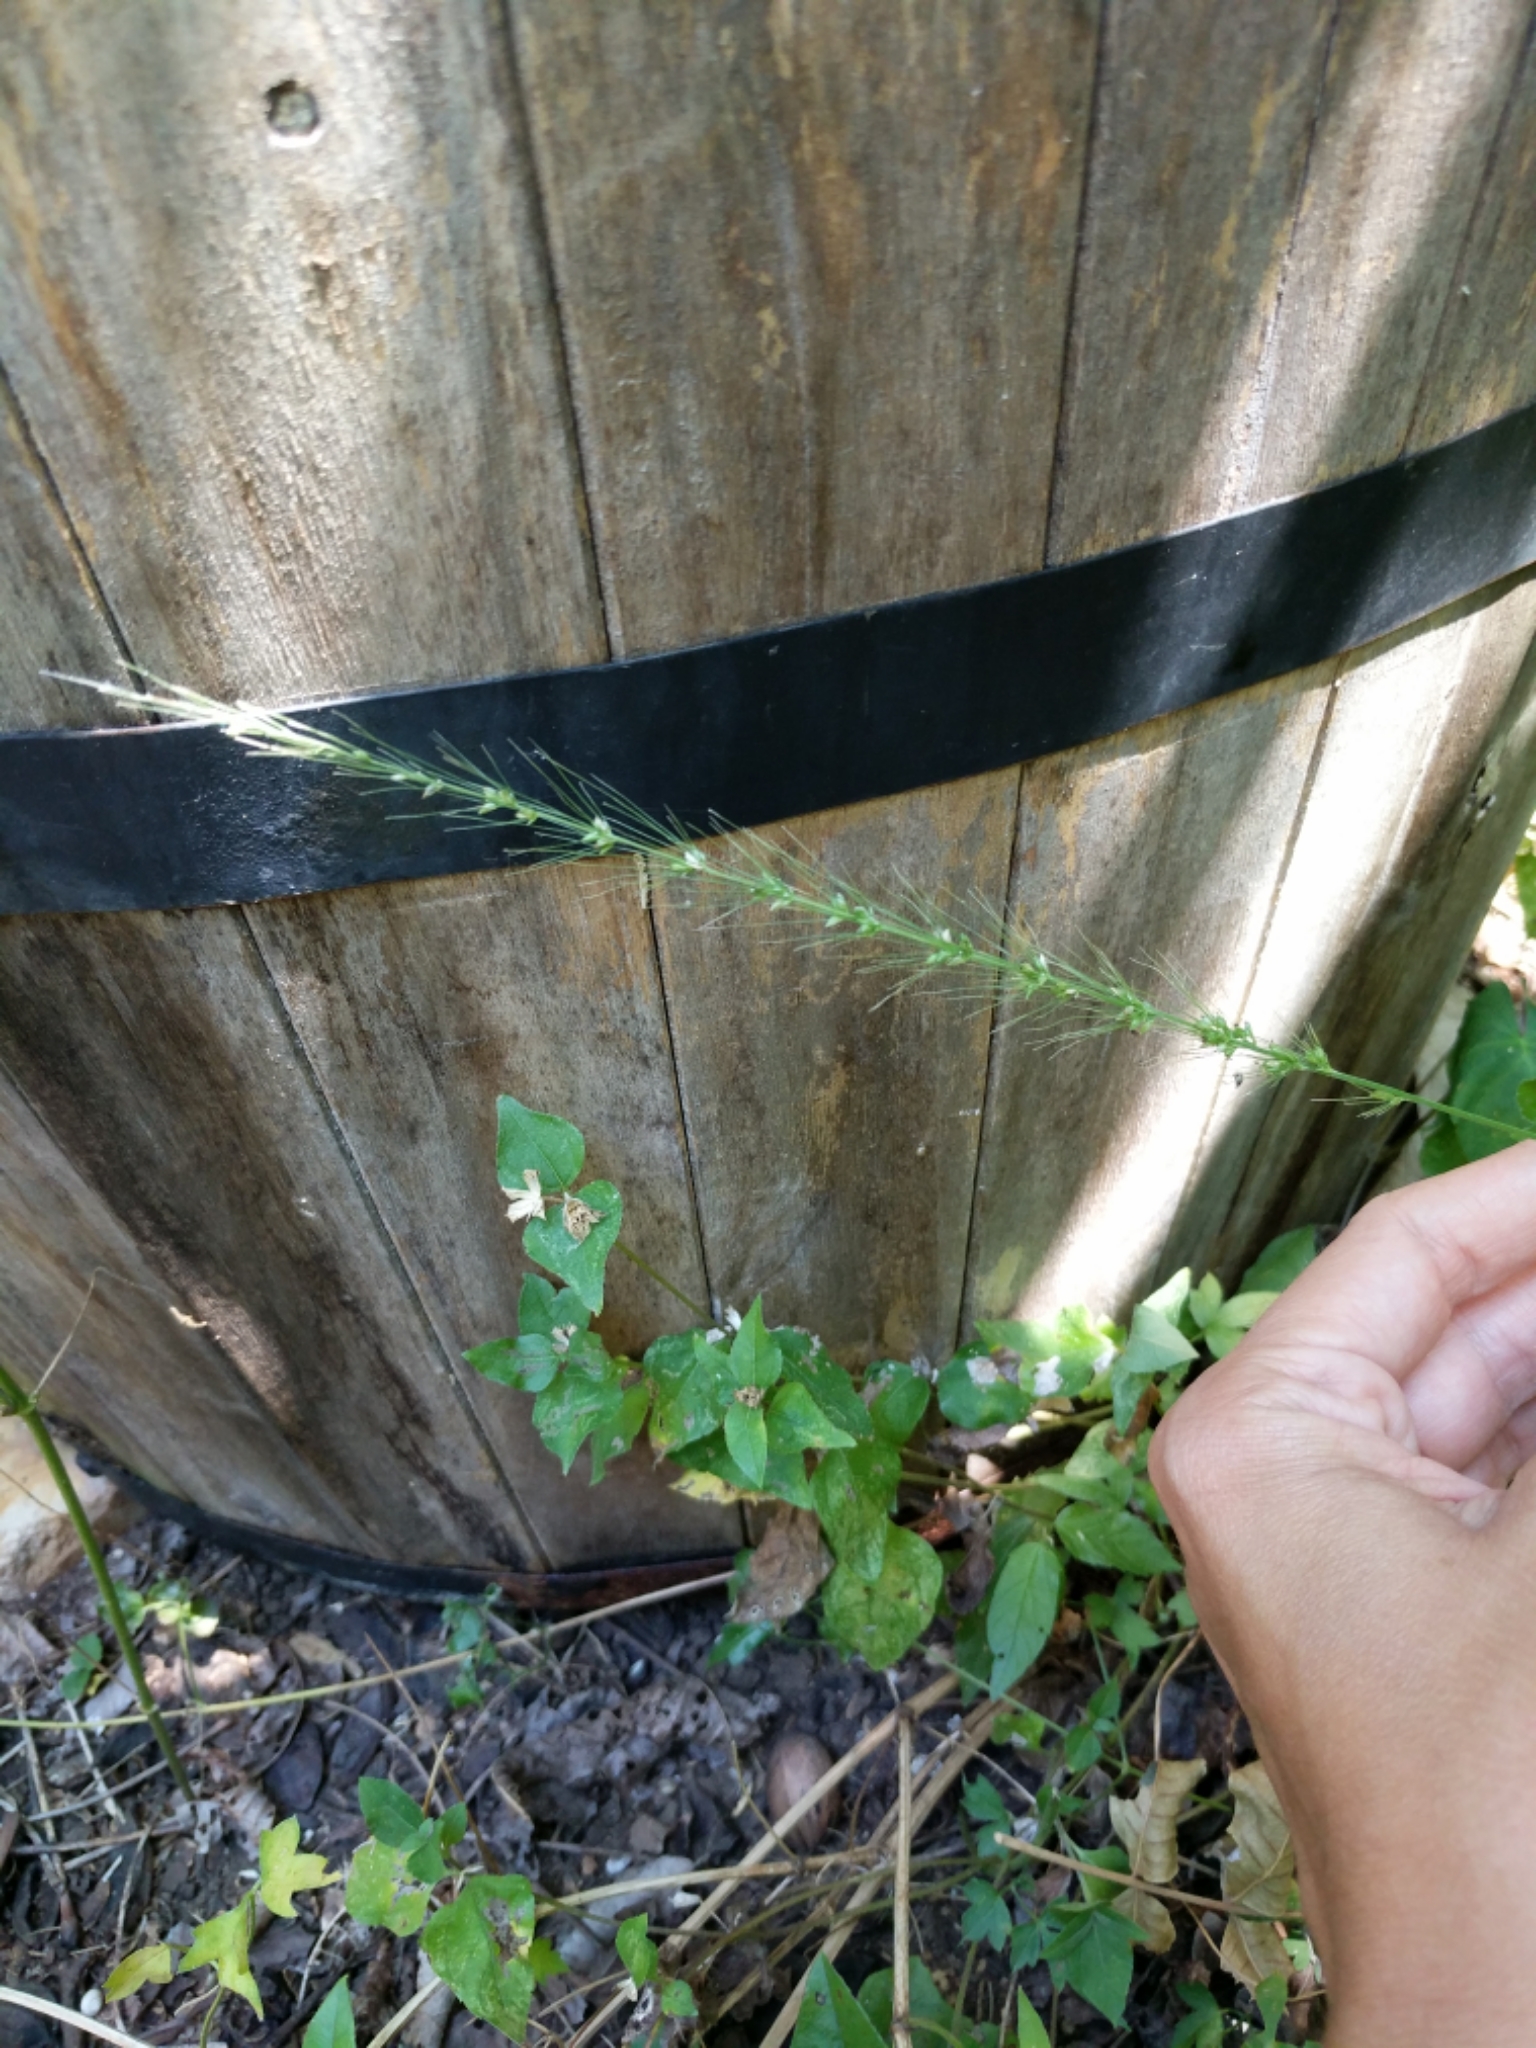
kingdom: Plantae
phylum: Tracheophyta
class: Liliopsida
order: Poales
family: Poaceae
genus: Setaria
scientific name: Setaria scheelei
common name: Southwestern bristle grass
